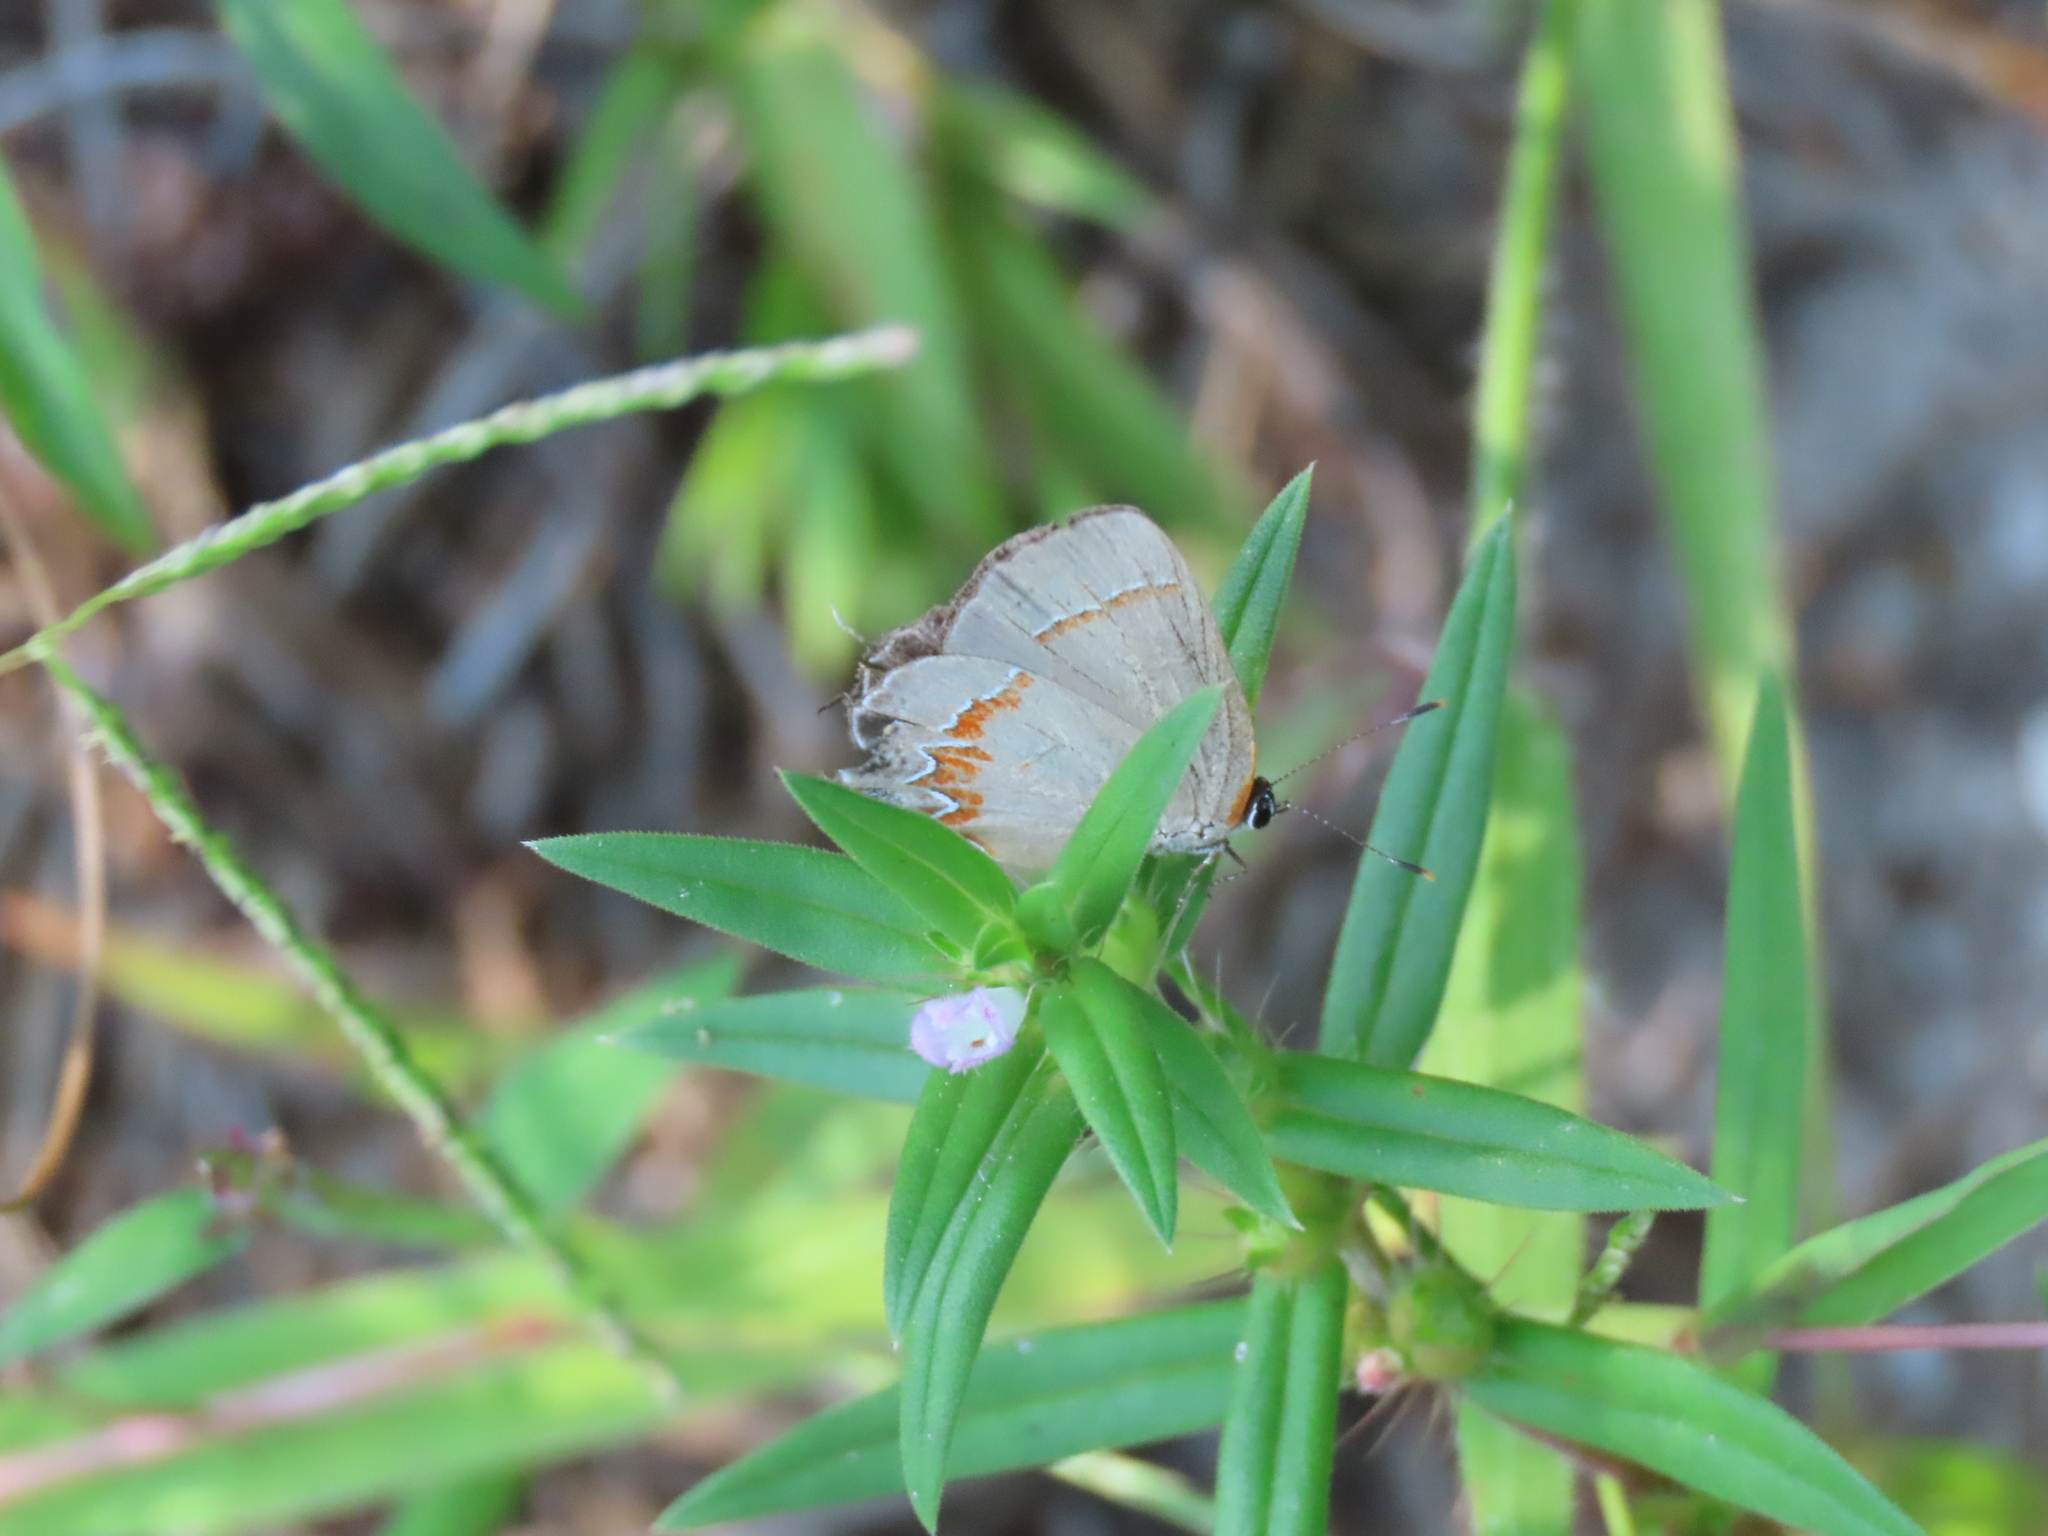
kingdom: Animalia
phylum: Arthropoda
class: Insecta
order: Lepidoptera
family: Lycaenidae
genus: Calycopis
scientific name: Calycopis cecrops
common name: Red-banded hairstreak
